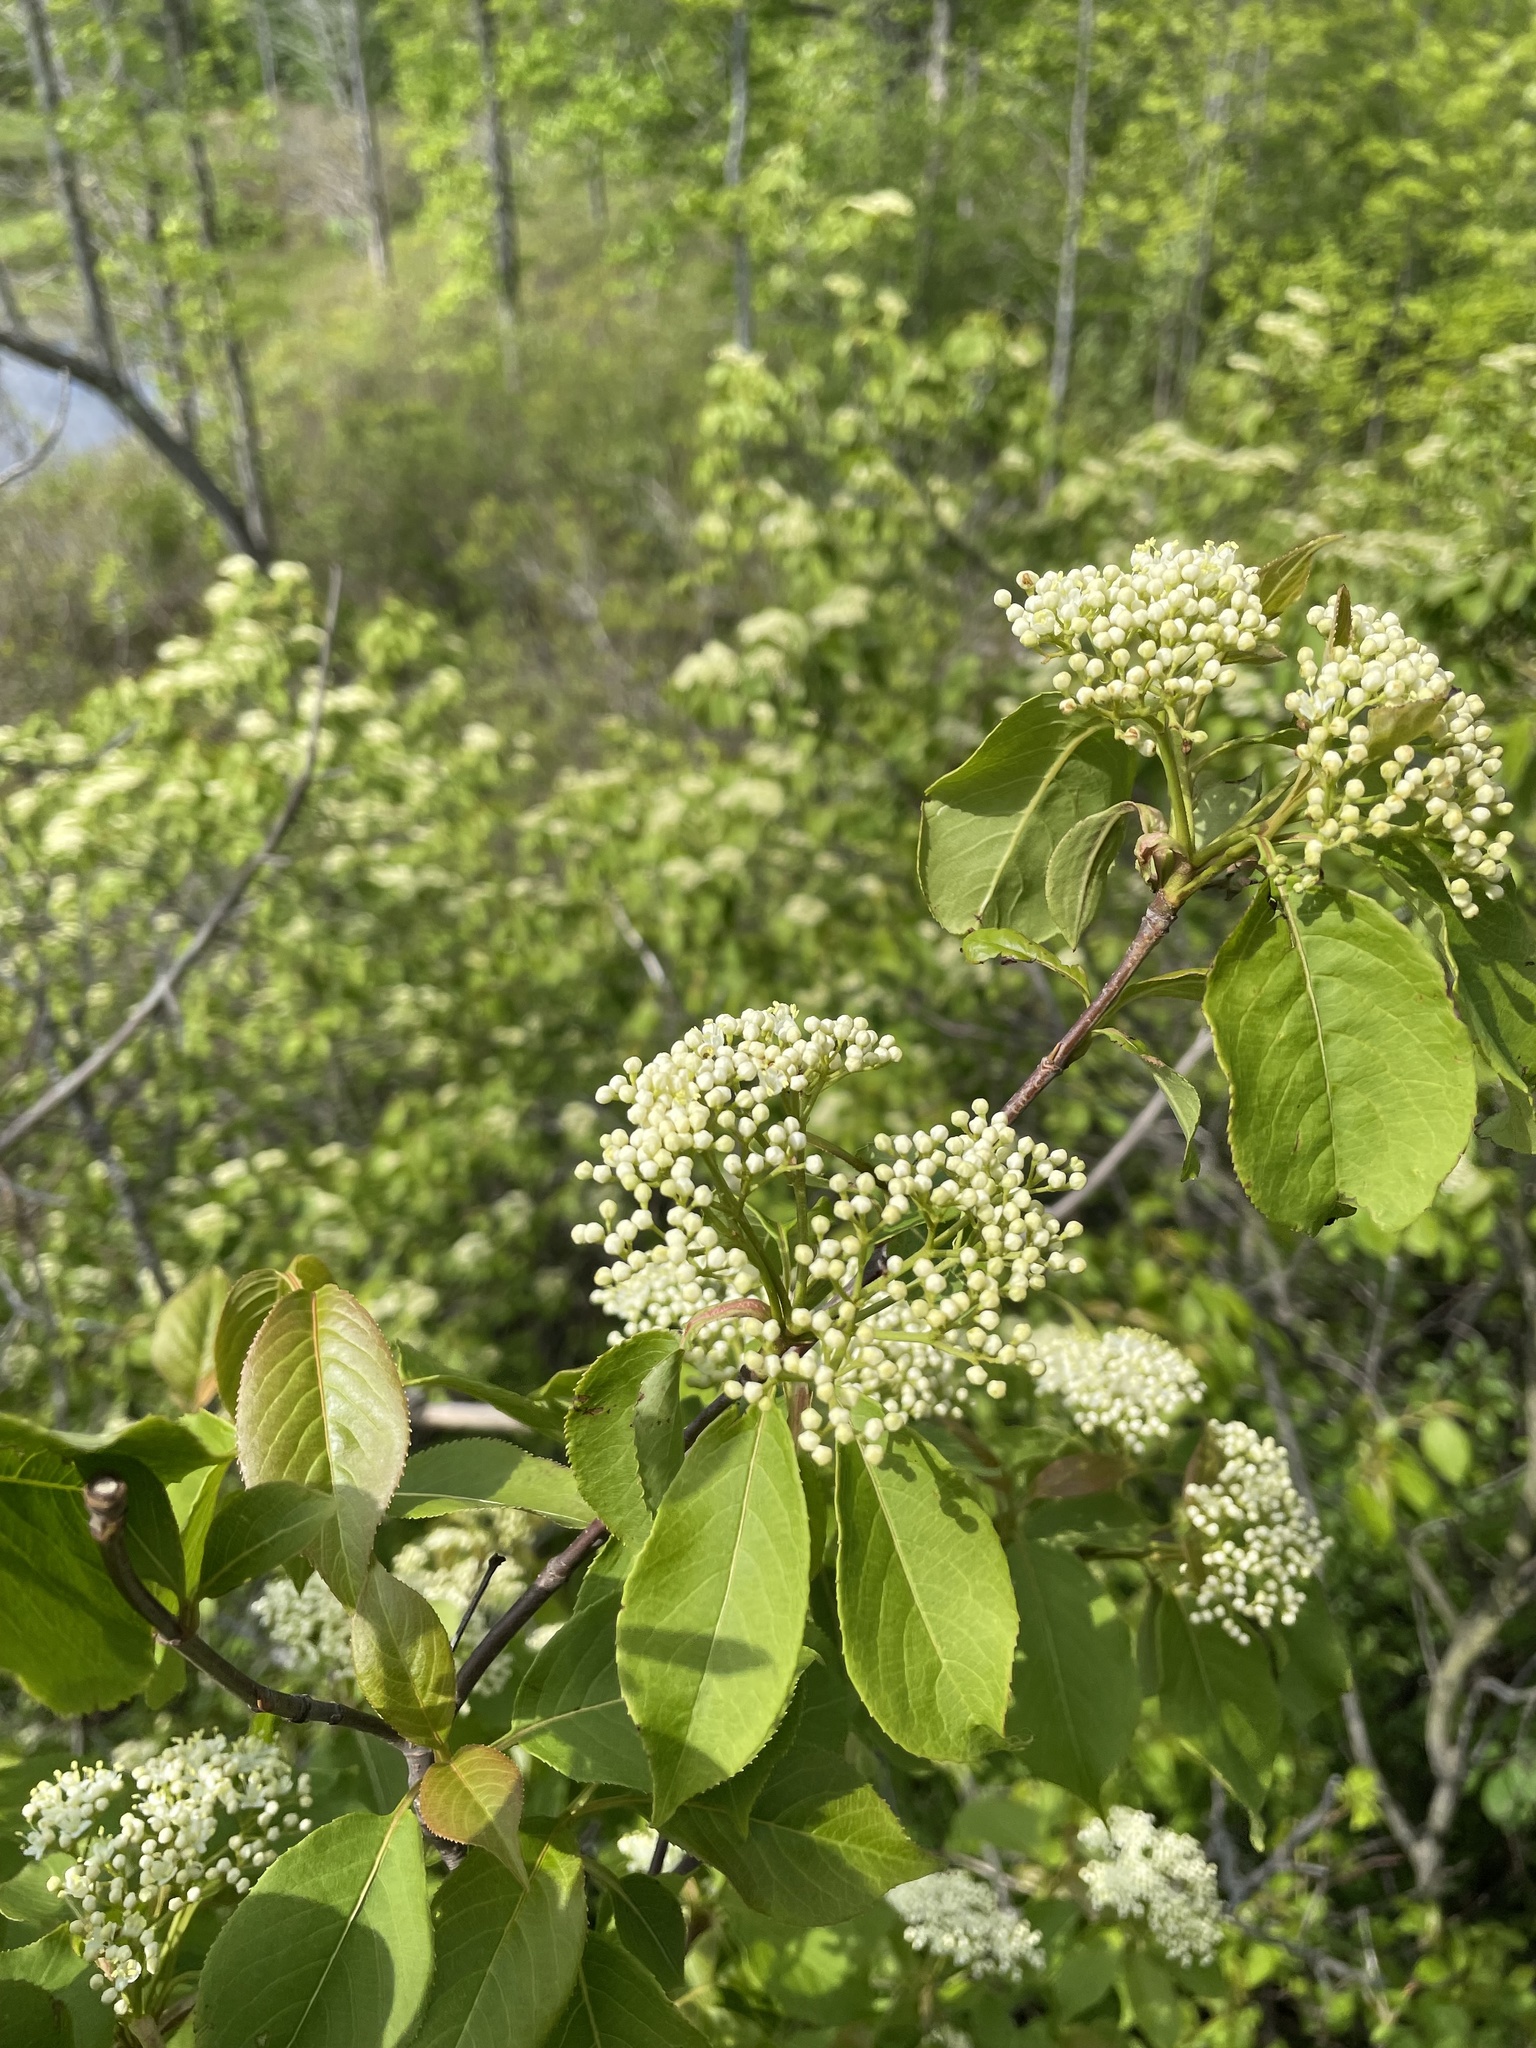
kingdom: Plantae
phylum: Tracheophyta
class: Magnoliopsida
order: Dipsacales
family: Viburnaceae
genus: Viburnum
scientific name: Viburnum lentago
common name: Black haw
